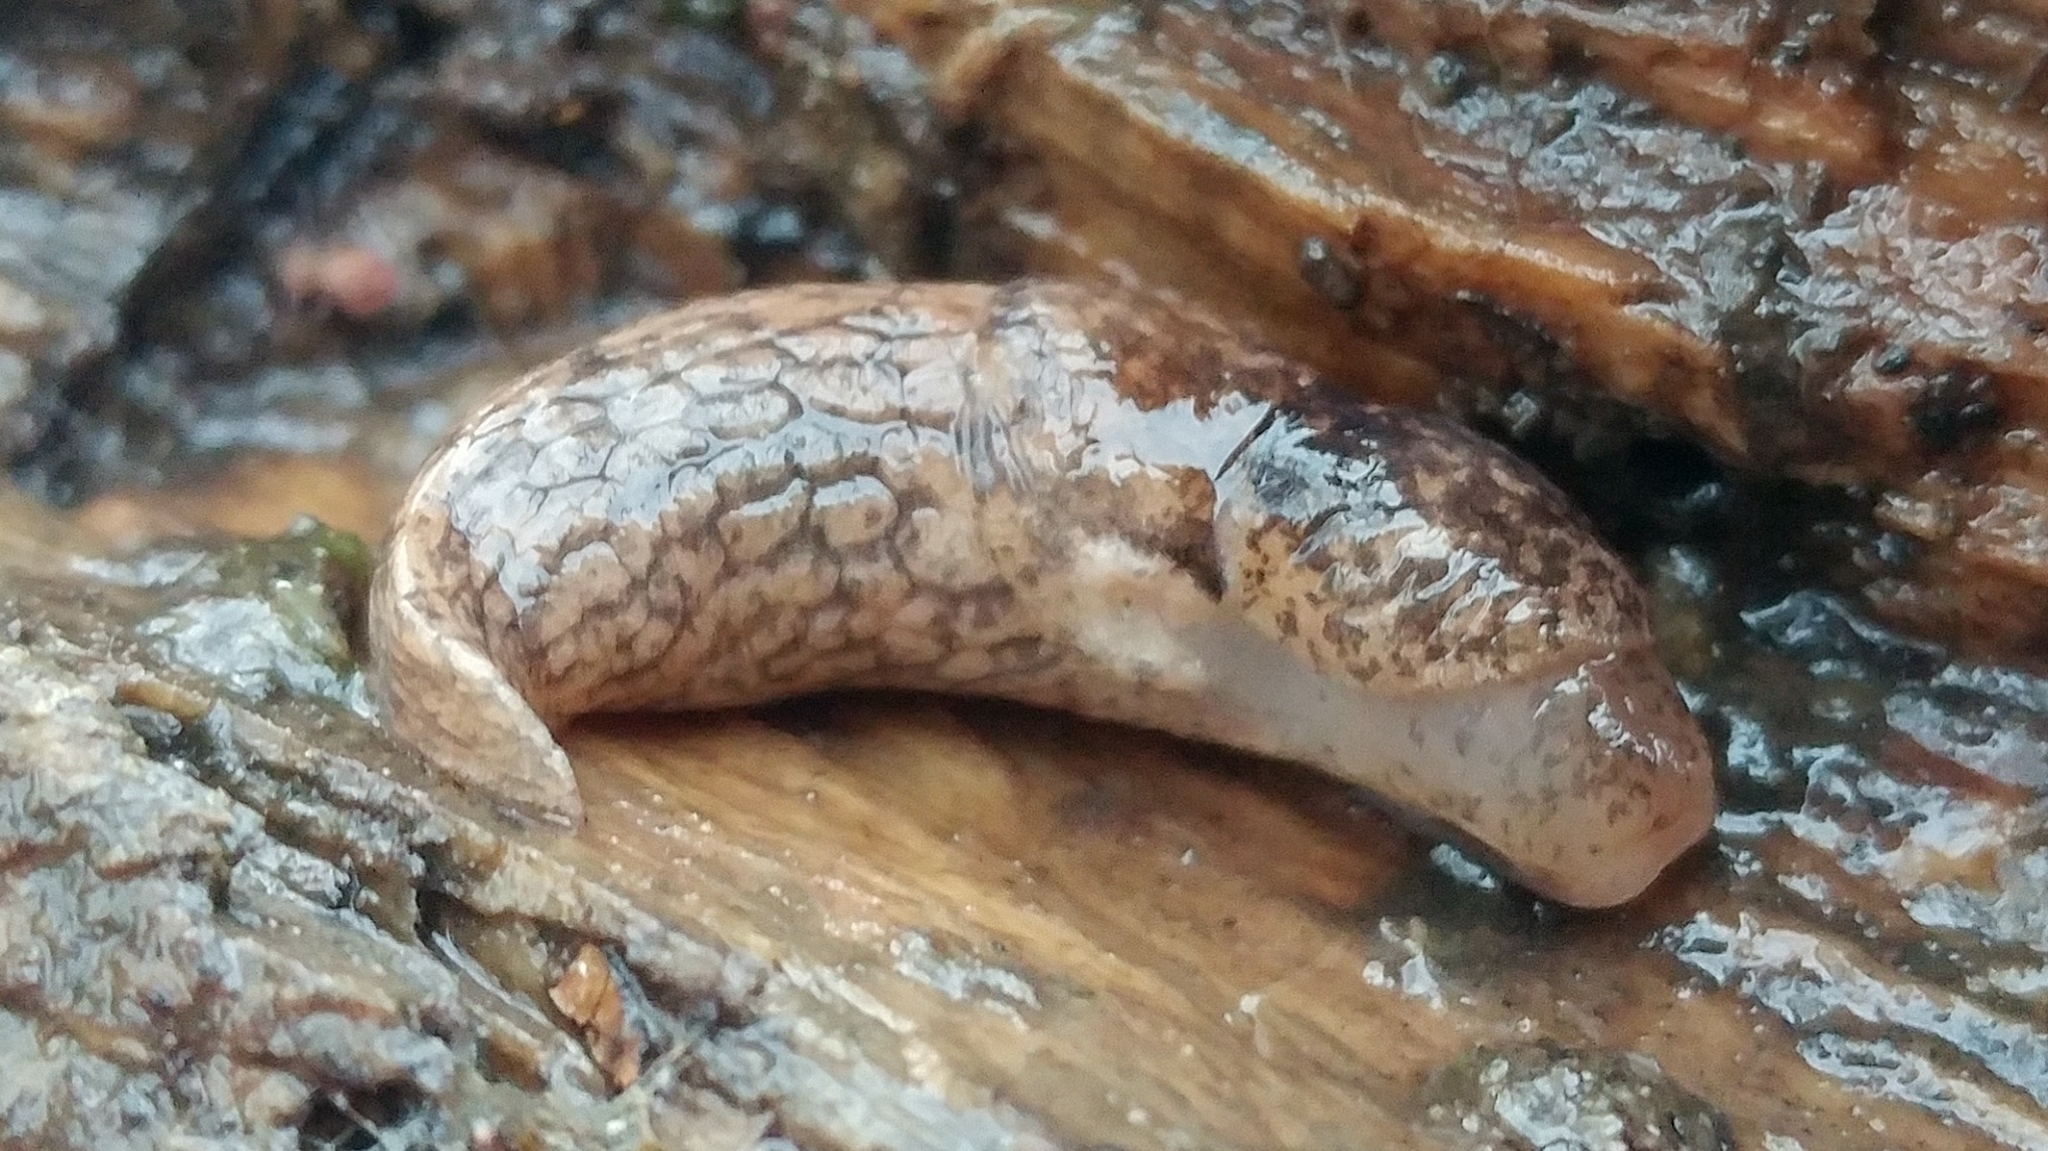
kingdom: Animalia
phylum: Mollusca
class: Gastropoda
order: Stylommatophora
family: Agriolimacidae
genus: Deroceras
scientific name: Deroceras reticulatum
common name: Gray field slug
